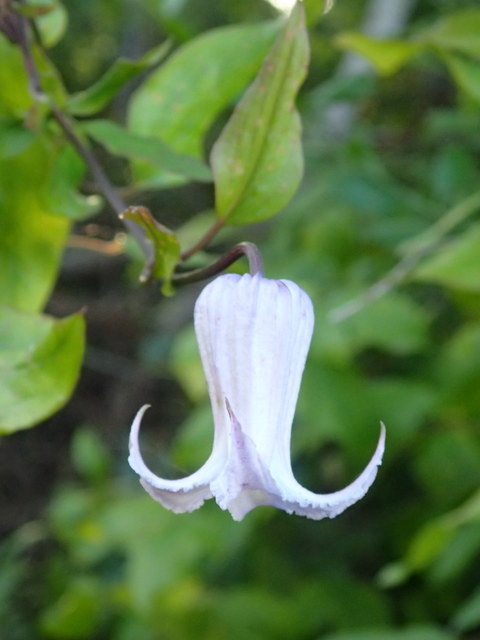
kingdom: Plantae
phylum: Tracheophyta
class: Magnoliopsida
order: Ranunculales
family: Ranunculaceae
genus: Clematis
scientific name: Clematis crispa
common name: Curly clematis
